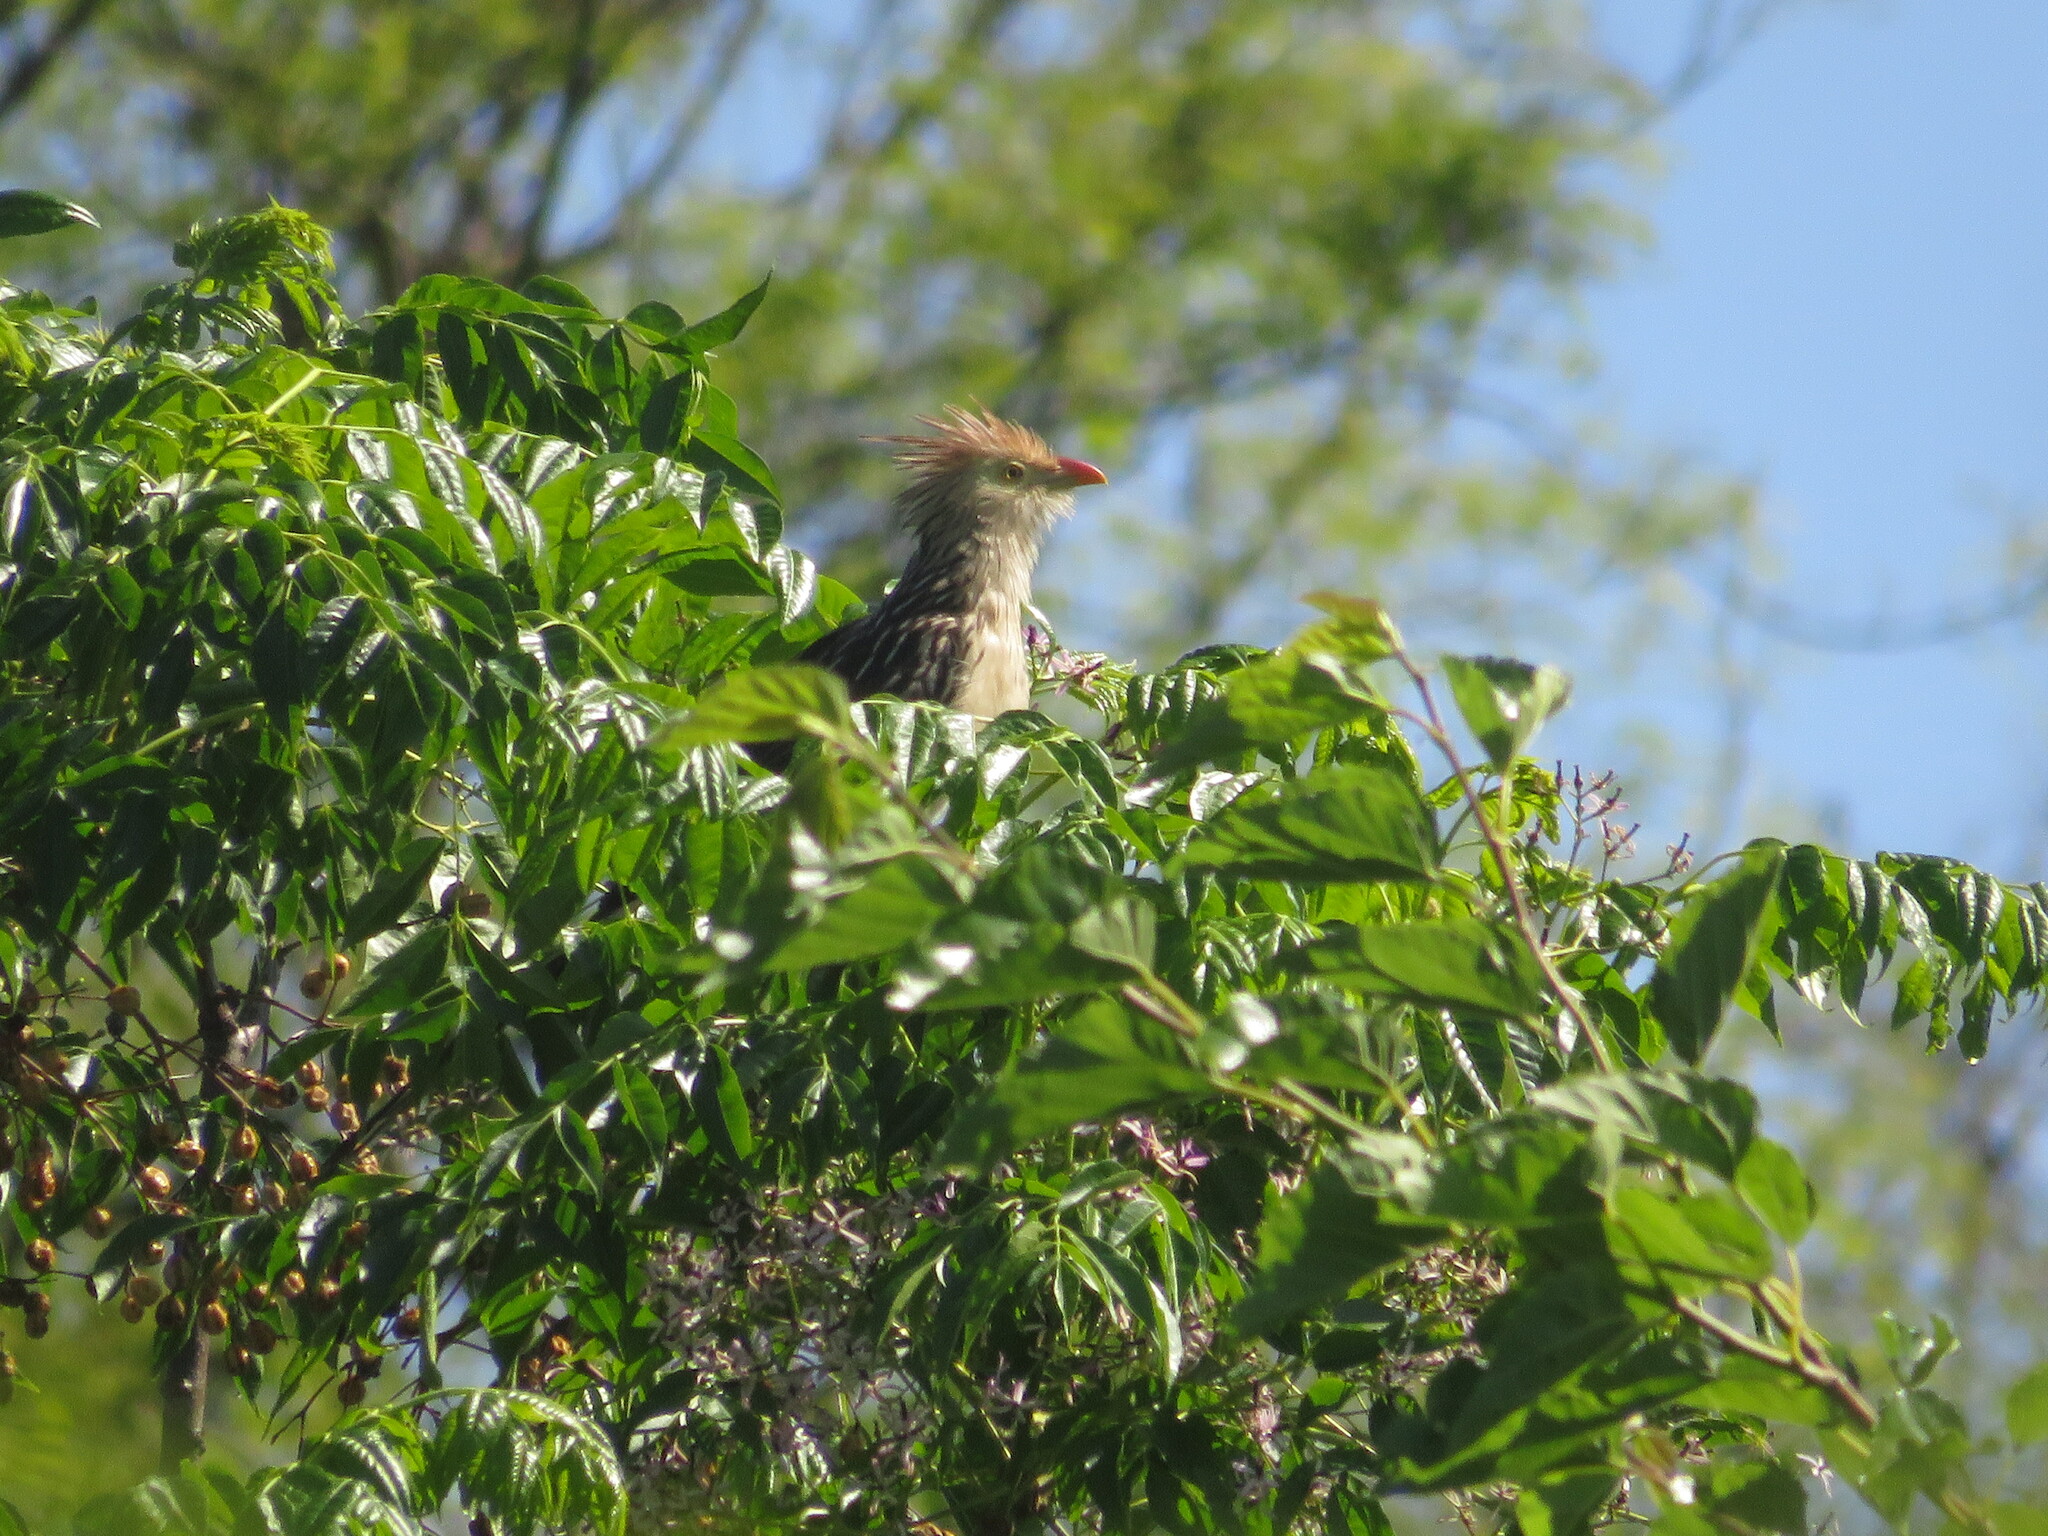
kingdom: Animalia
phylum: Chordata
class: Aves
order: Cuculiformes
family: Cuculidae
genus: Guira
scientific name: Guira guira
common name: Guira cuckoo
